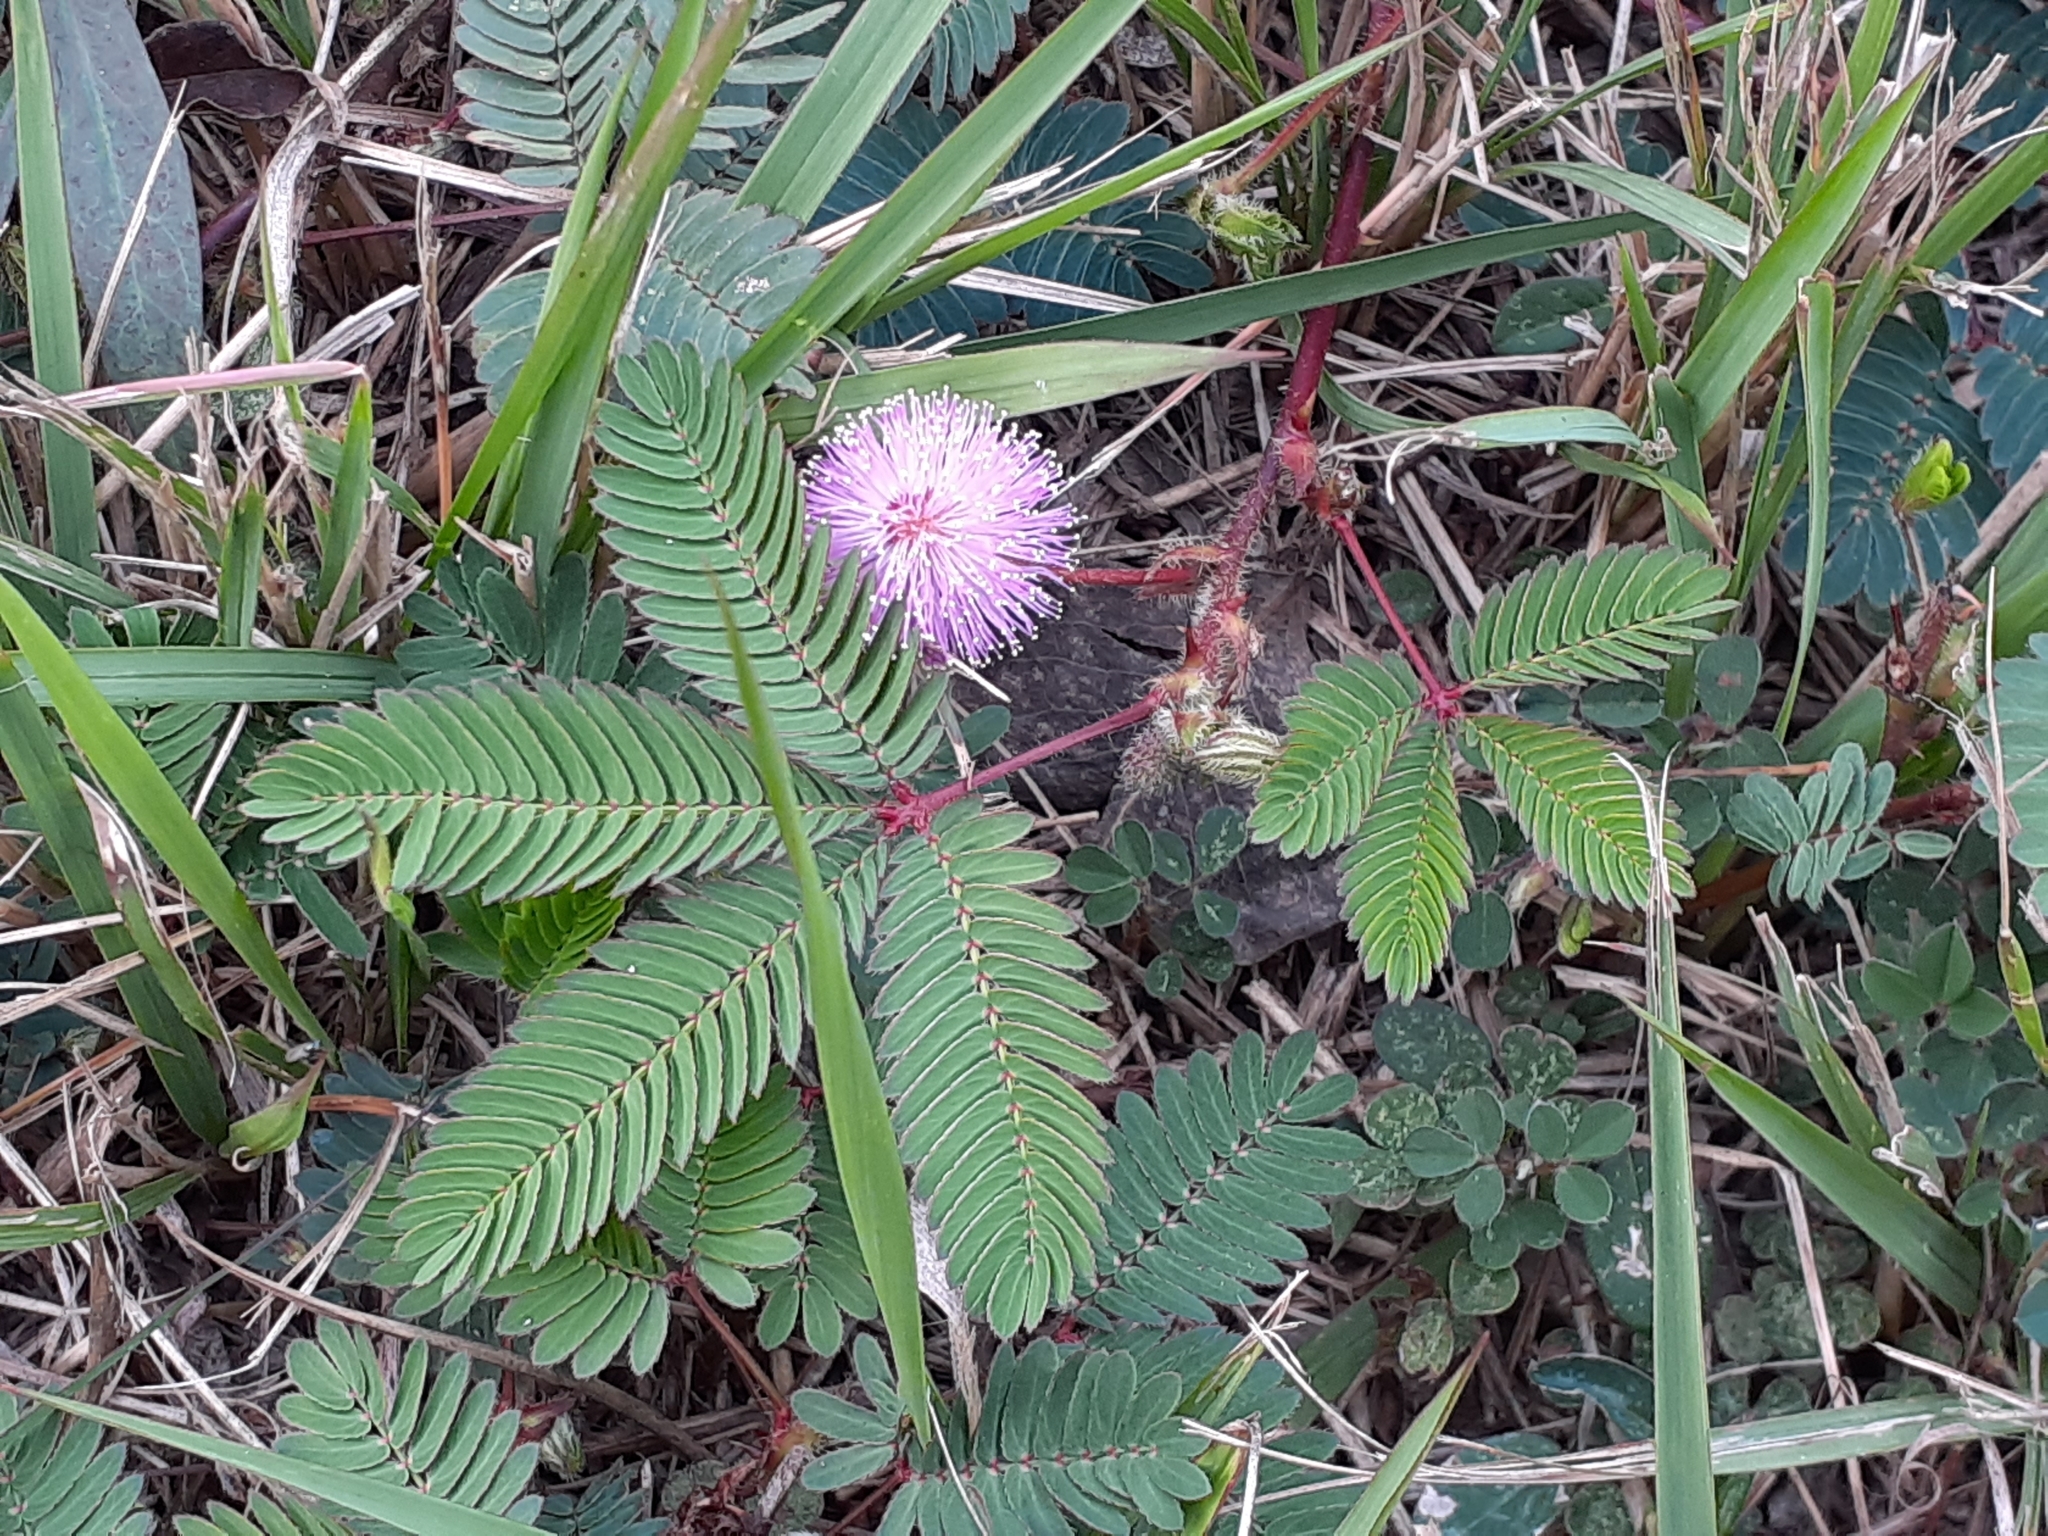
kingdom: Plantae
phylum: Tracheophyta
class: Magnoliopsida
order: Fabales
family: Fabaceae
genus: Mimosa
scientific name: Mimosa pudica
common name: Sensitive plant
